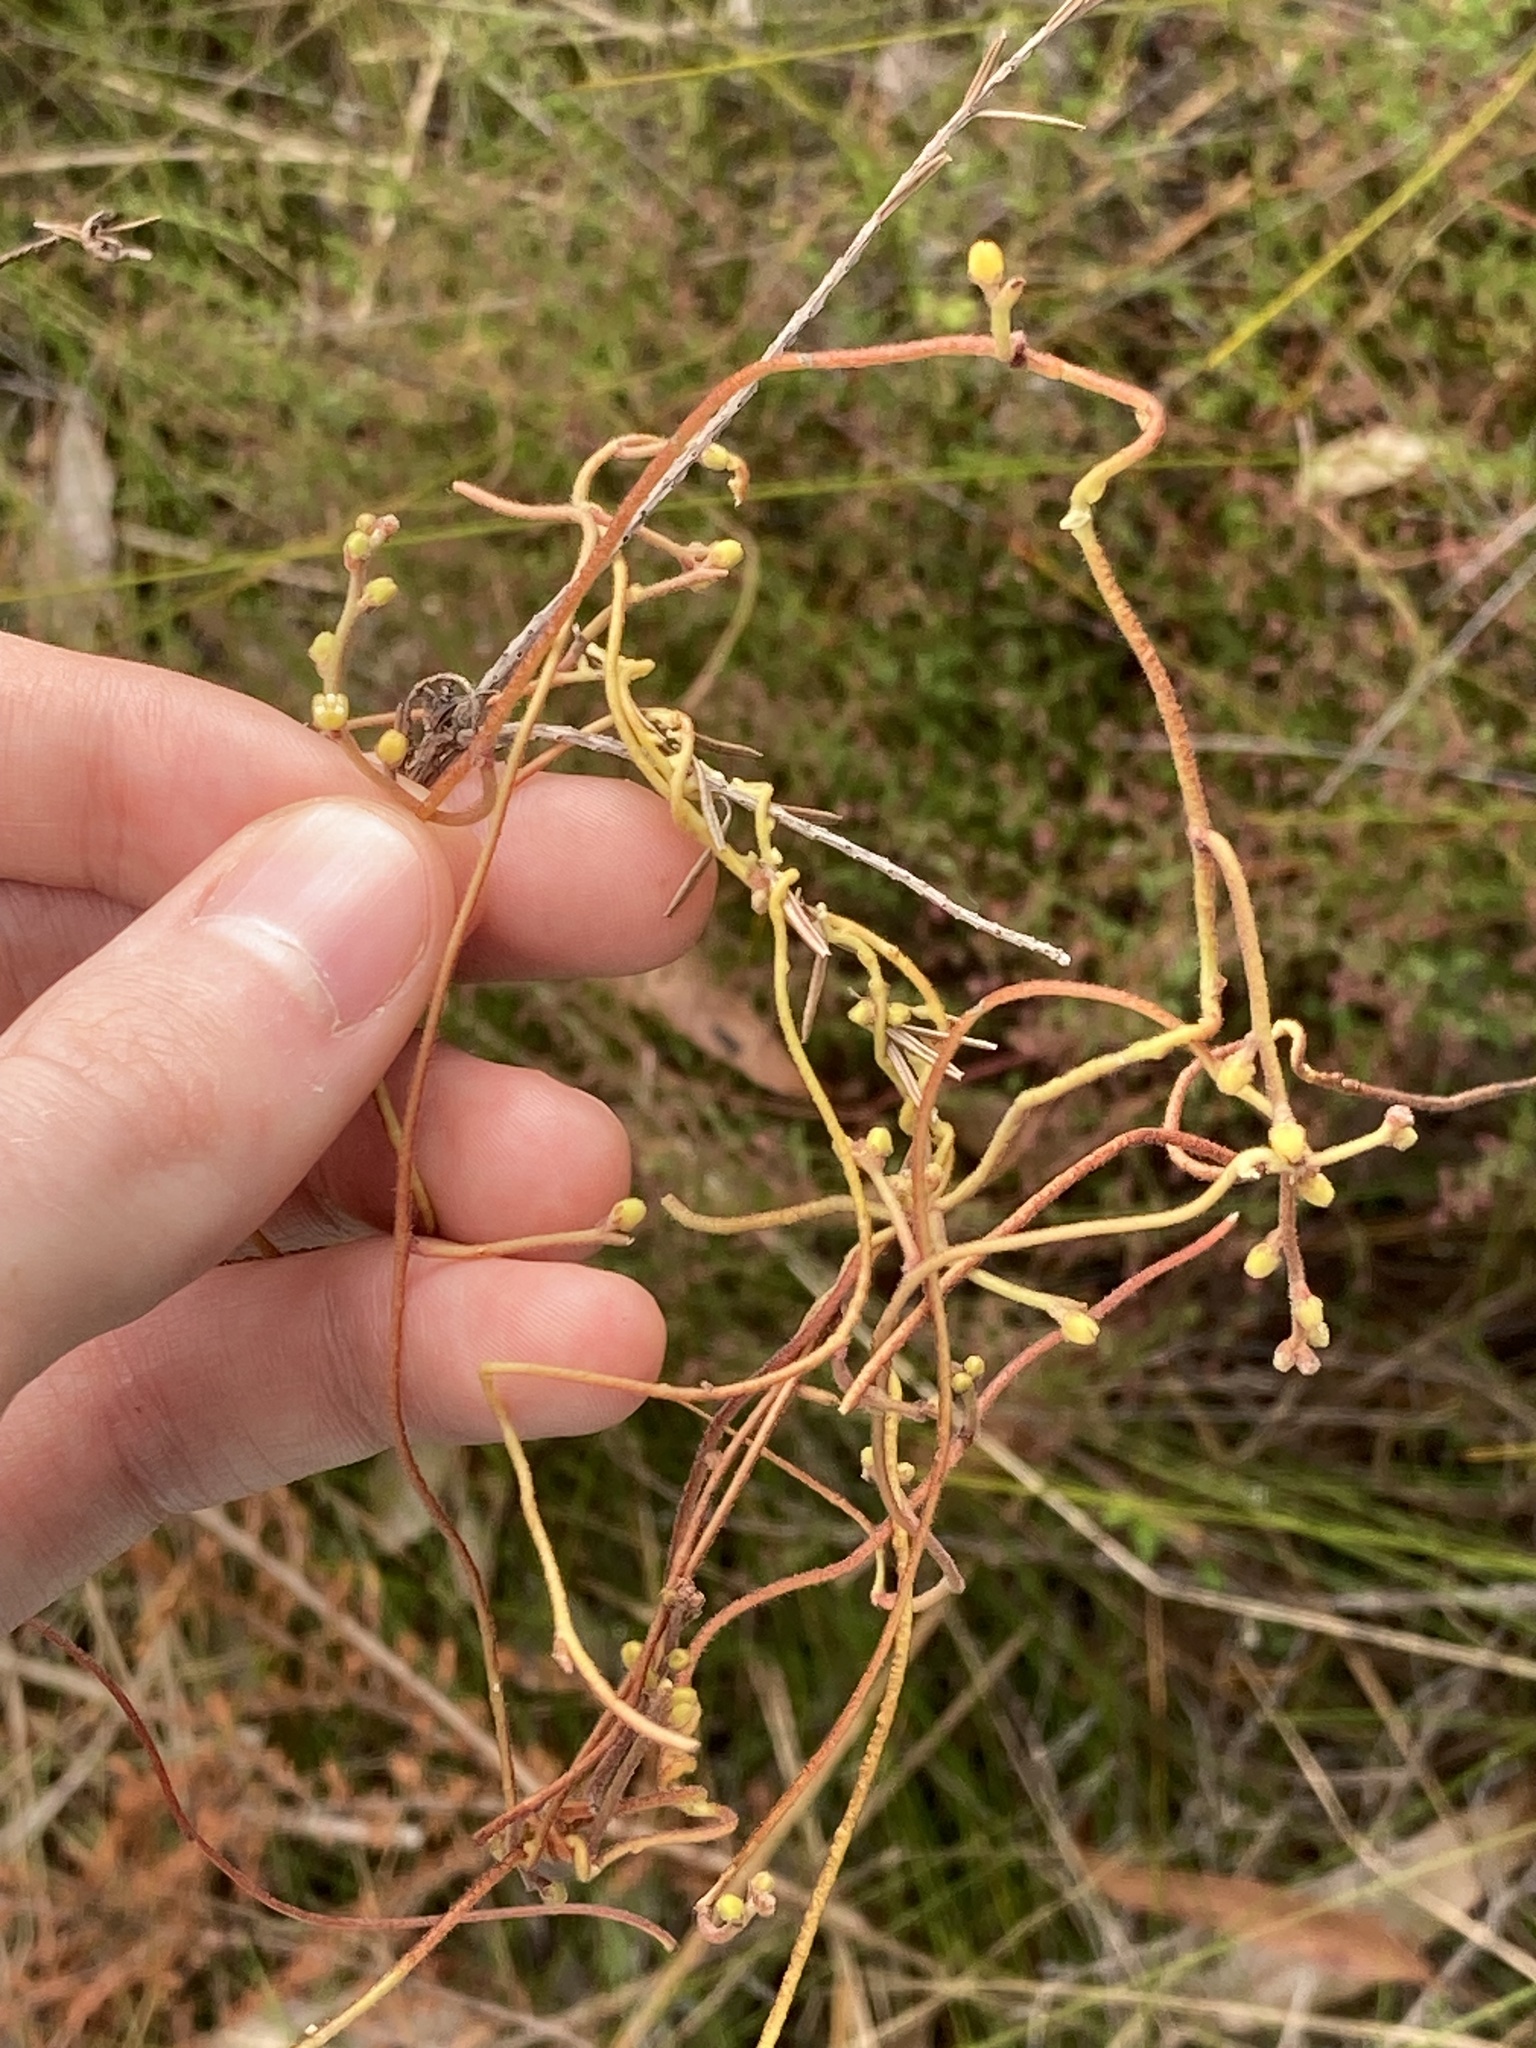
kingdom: Plantae
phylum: Tracheophyta
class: Magnoliopsida
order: Laurales
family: Lauraceae
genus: Cassytha
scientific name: Cassytha pubescens
